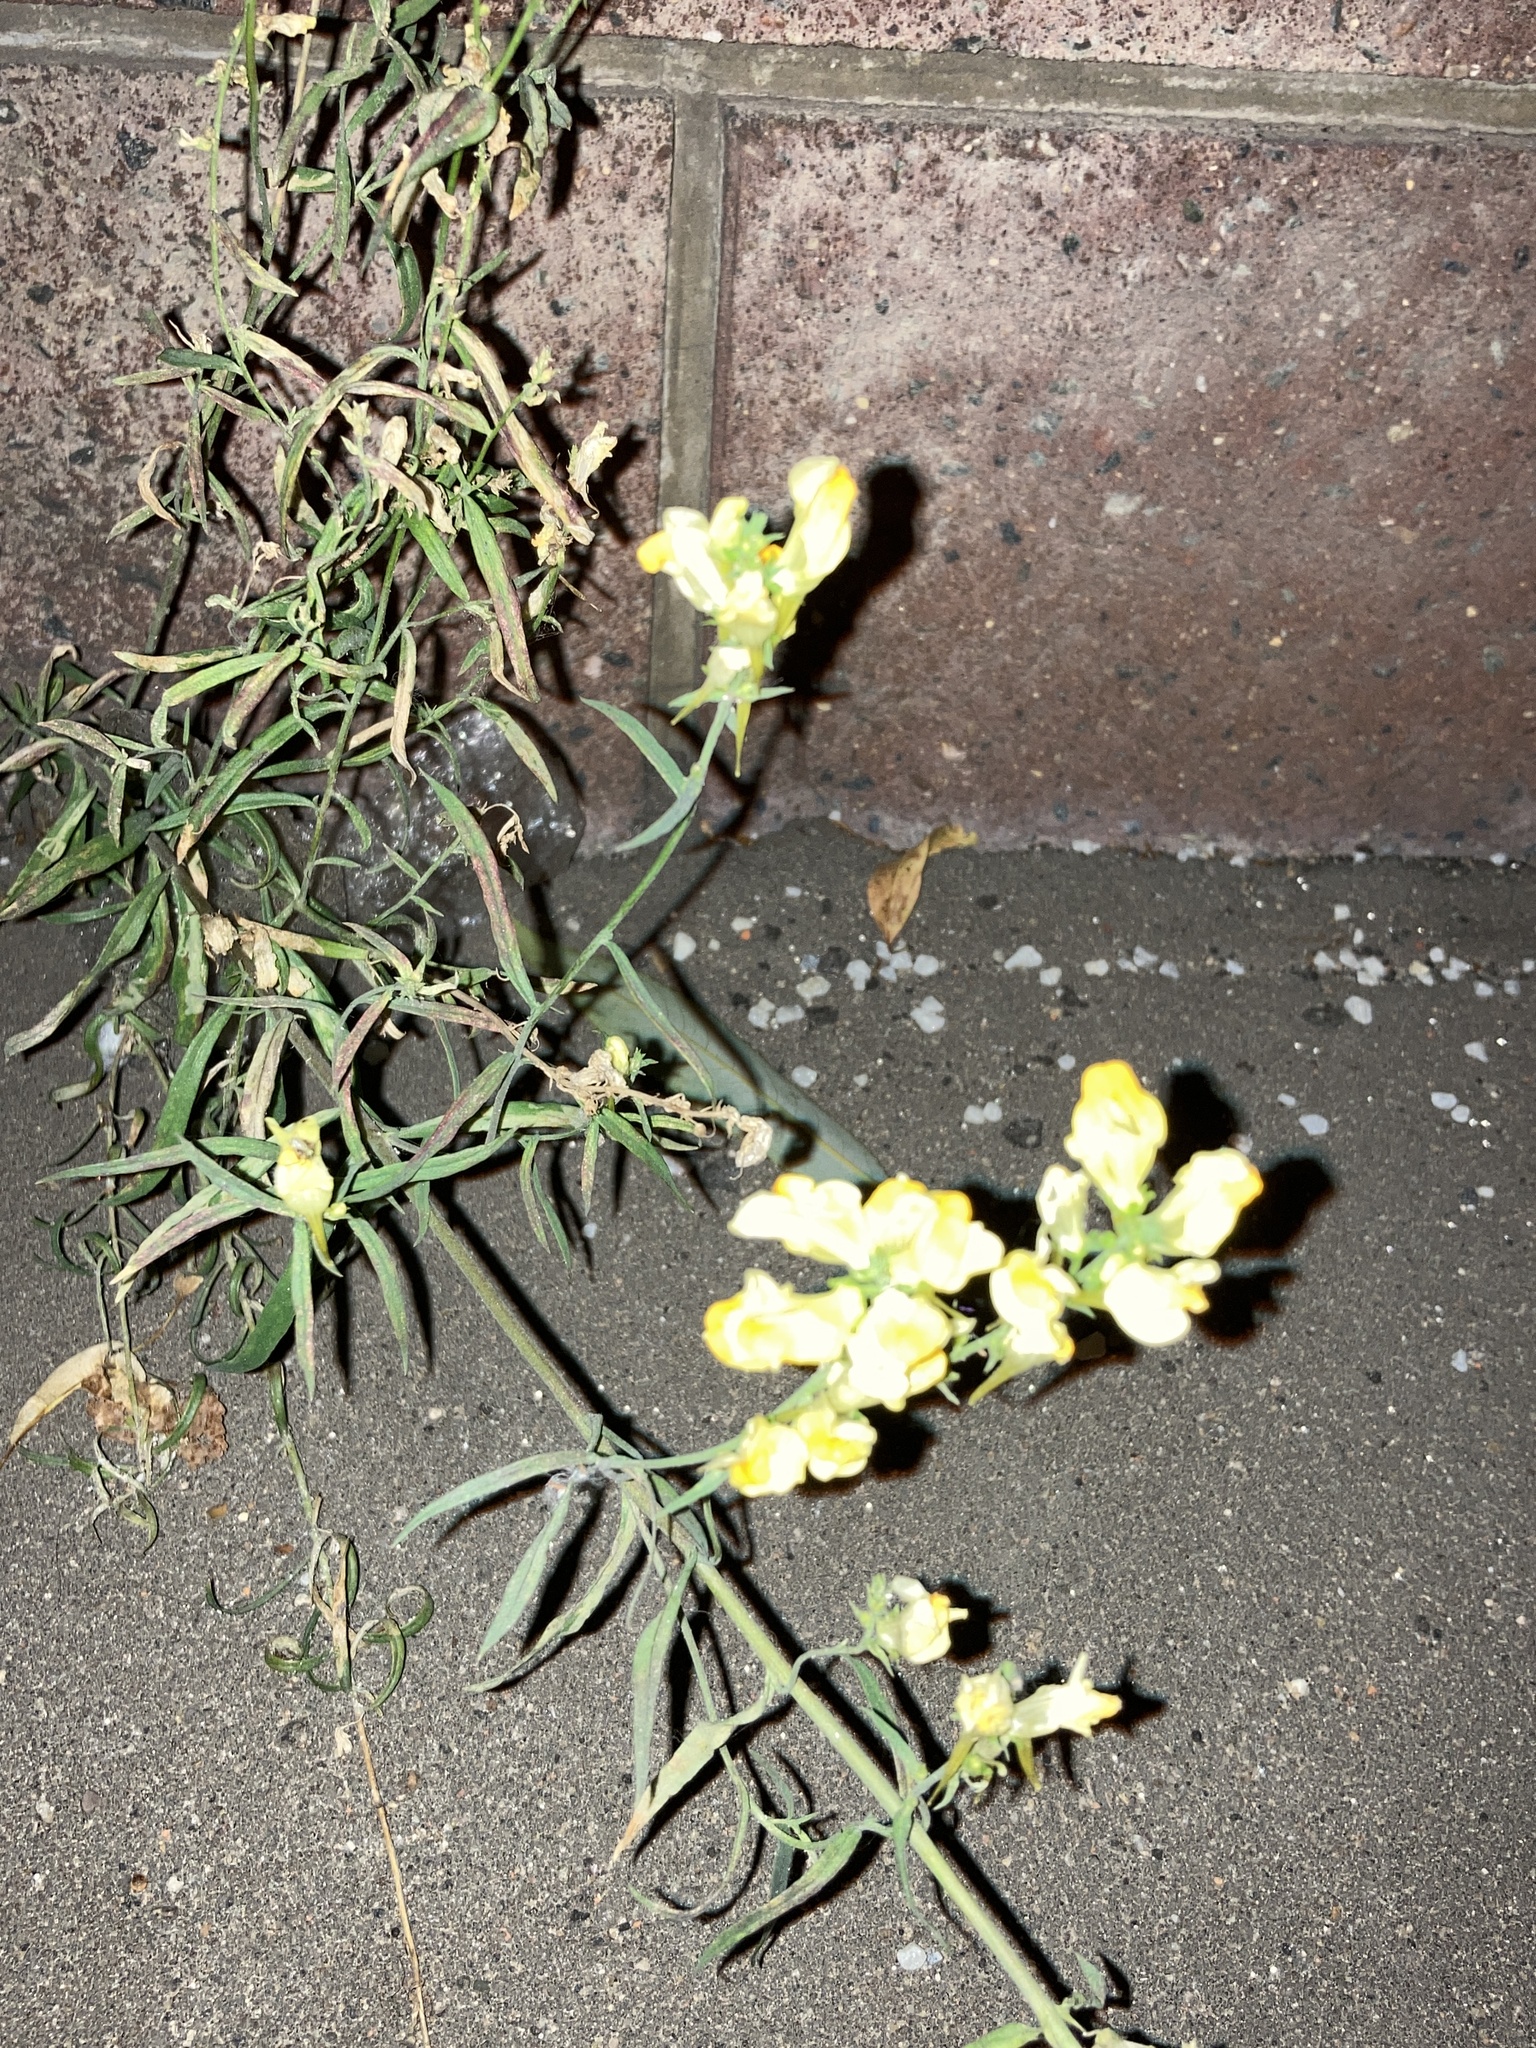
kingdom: Plantae
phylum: Tracheophyta
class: Magnoliopsida
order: Lamiales
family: Plantaginaceae
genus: Linaria
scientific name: Linaria vulgaris
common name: Butter and eggs
